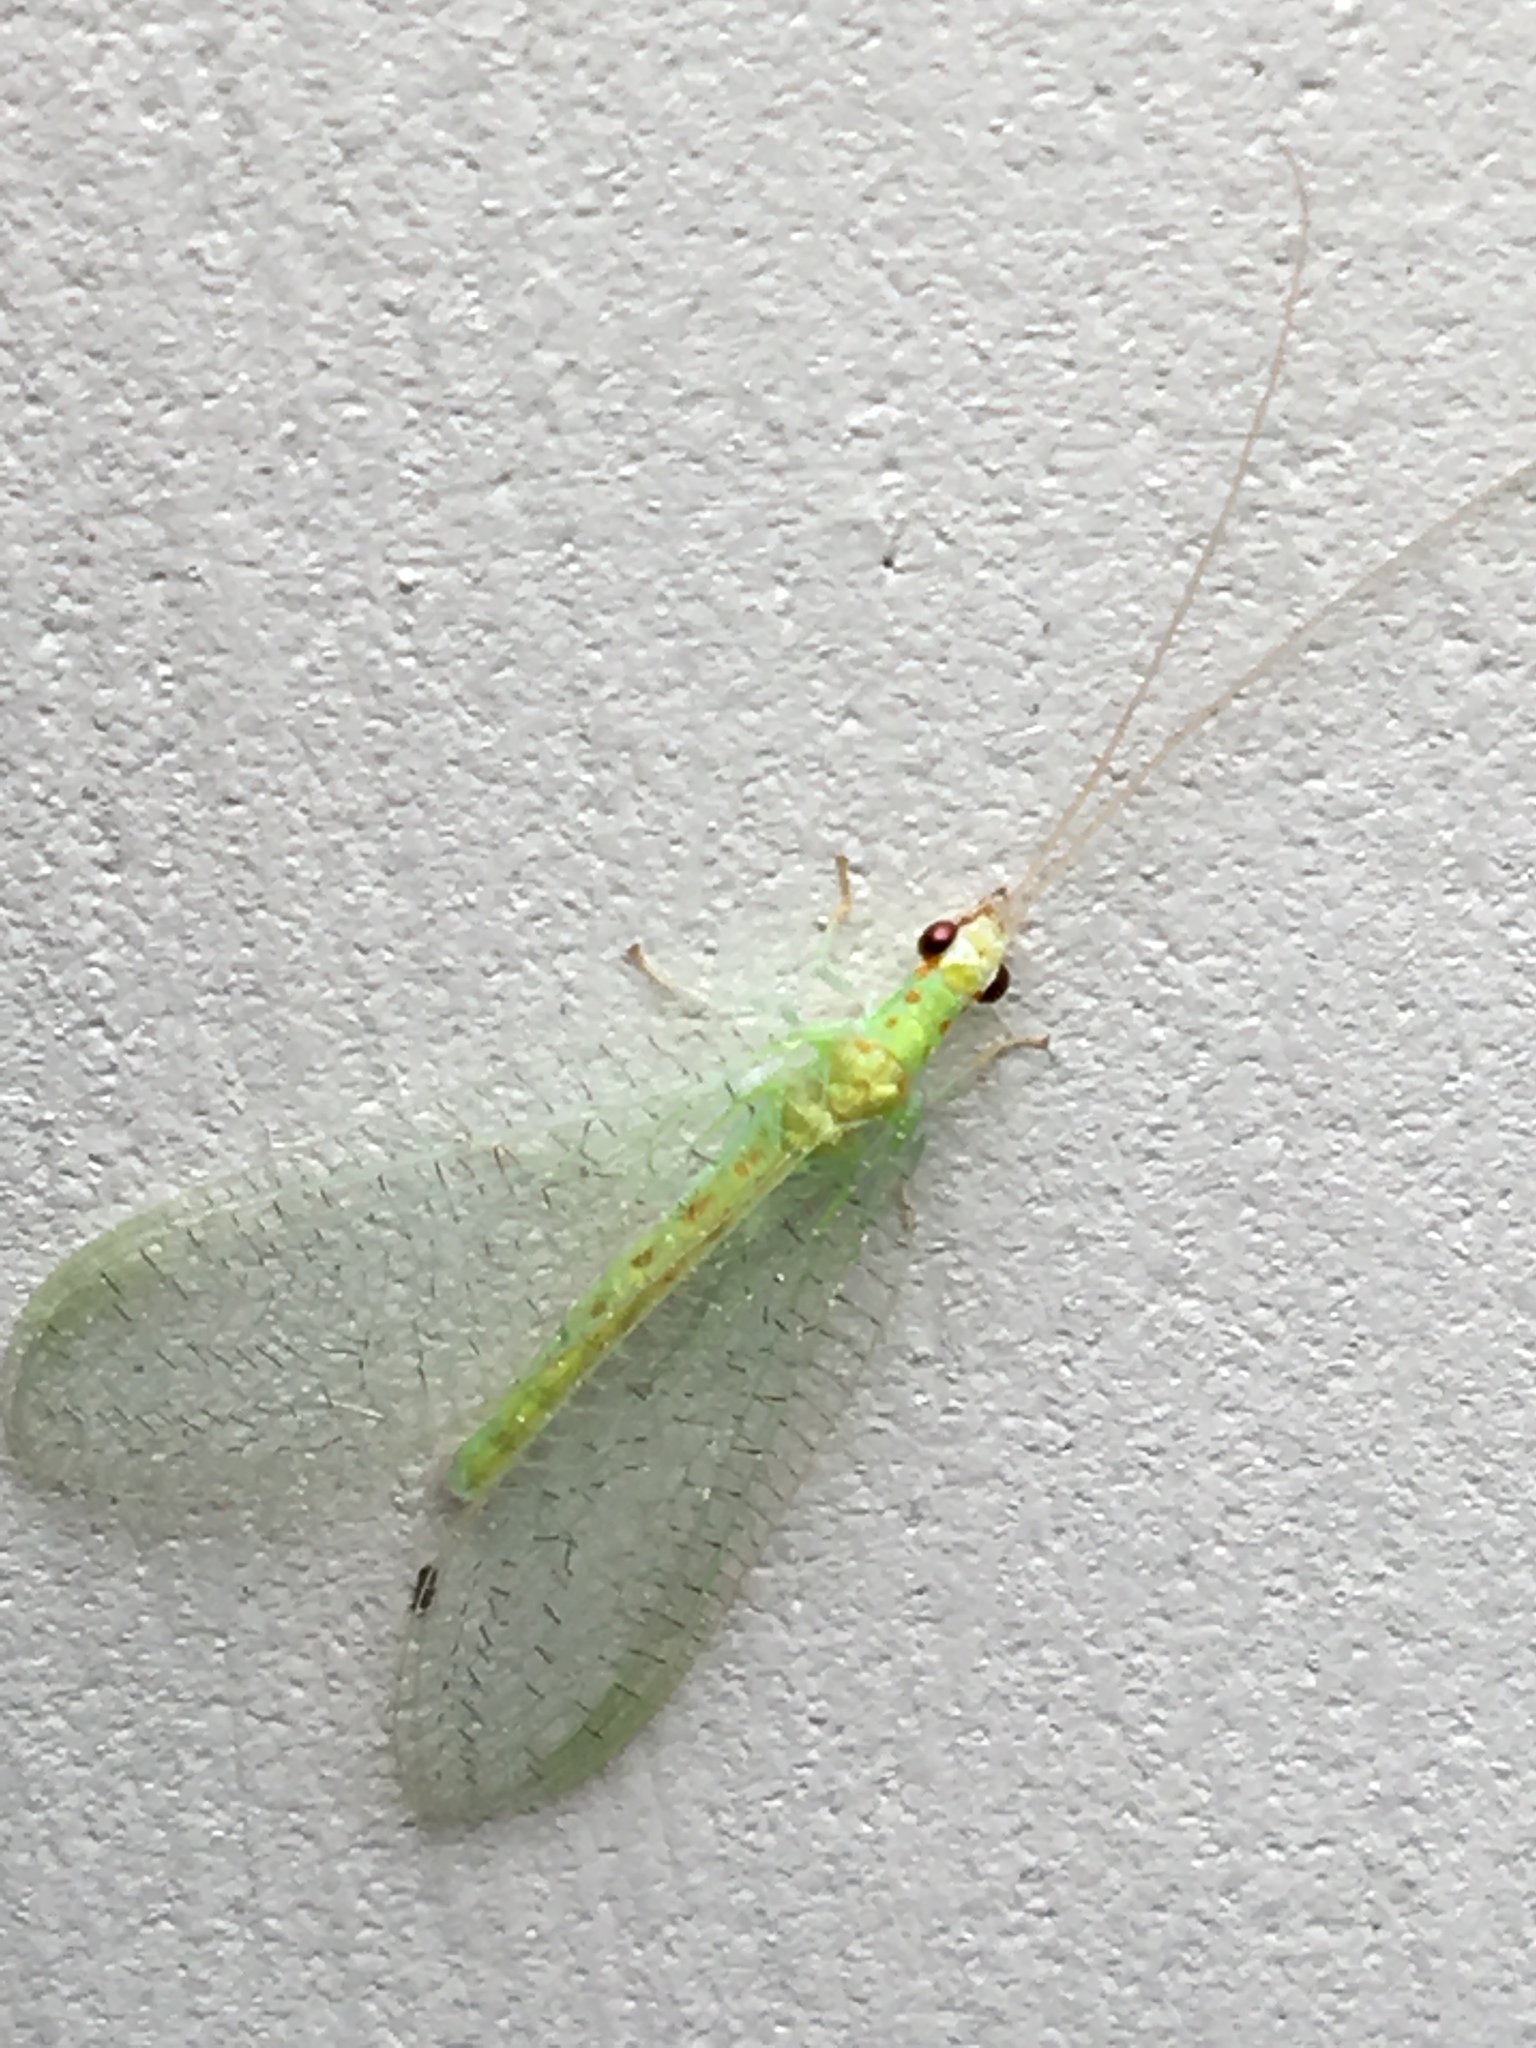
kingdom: Animalia
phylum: Arthropoda
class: Insecta
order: Neuroptera
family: Chrysopidae
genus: Chrysopa
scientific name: Chrysopa quadripunctata
